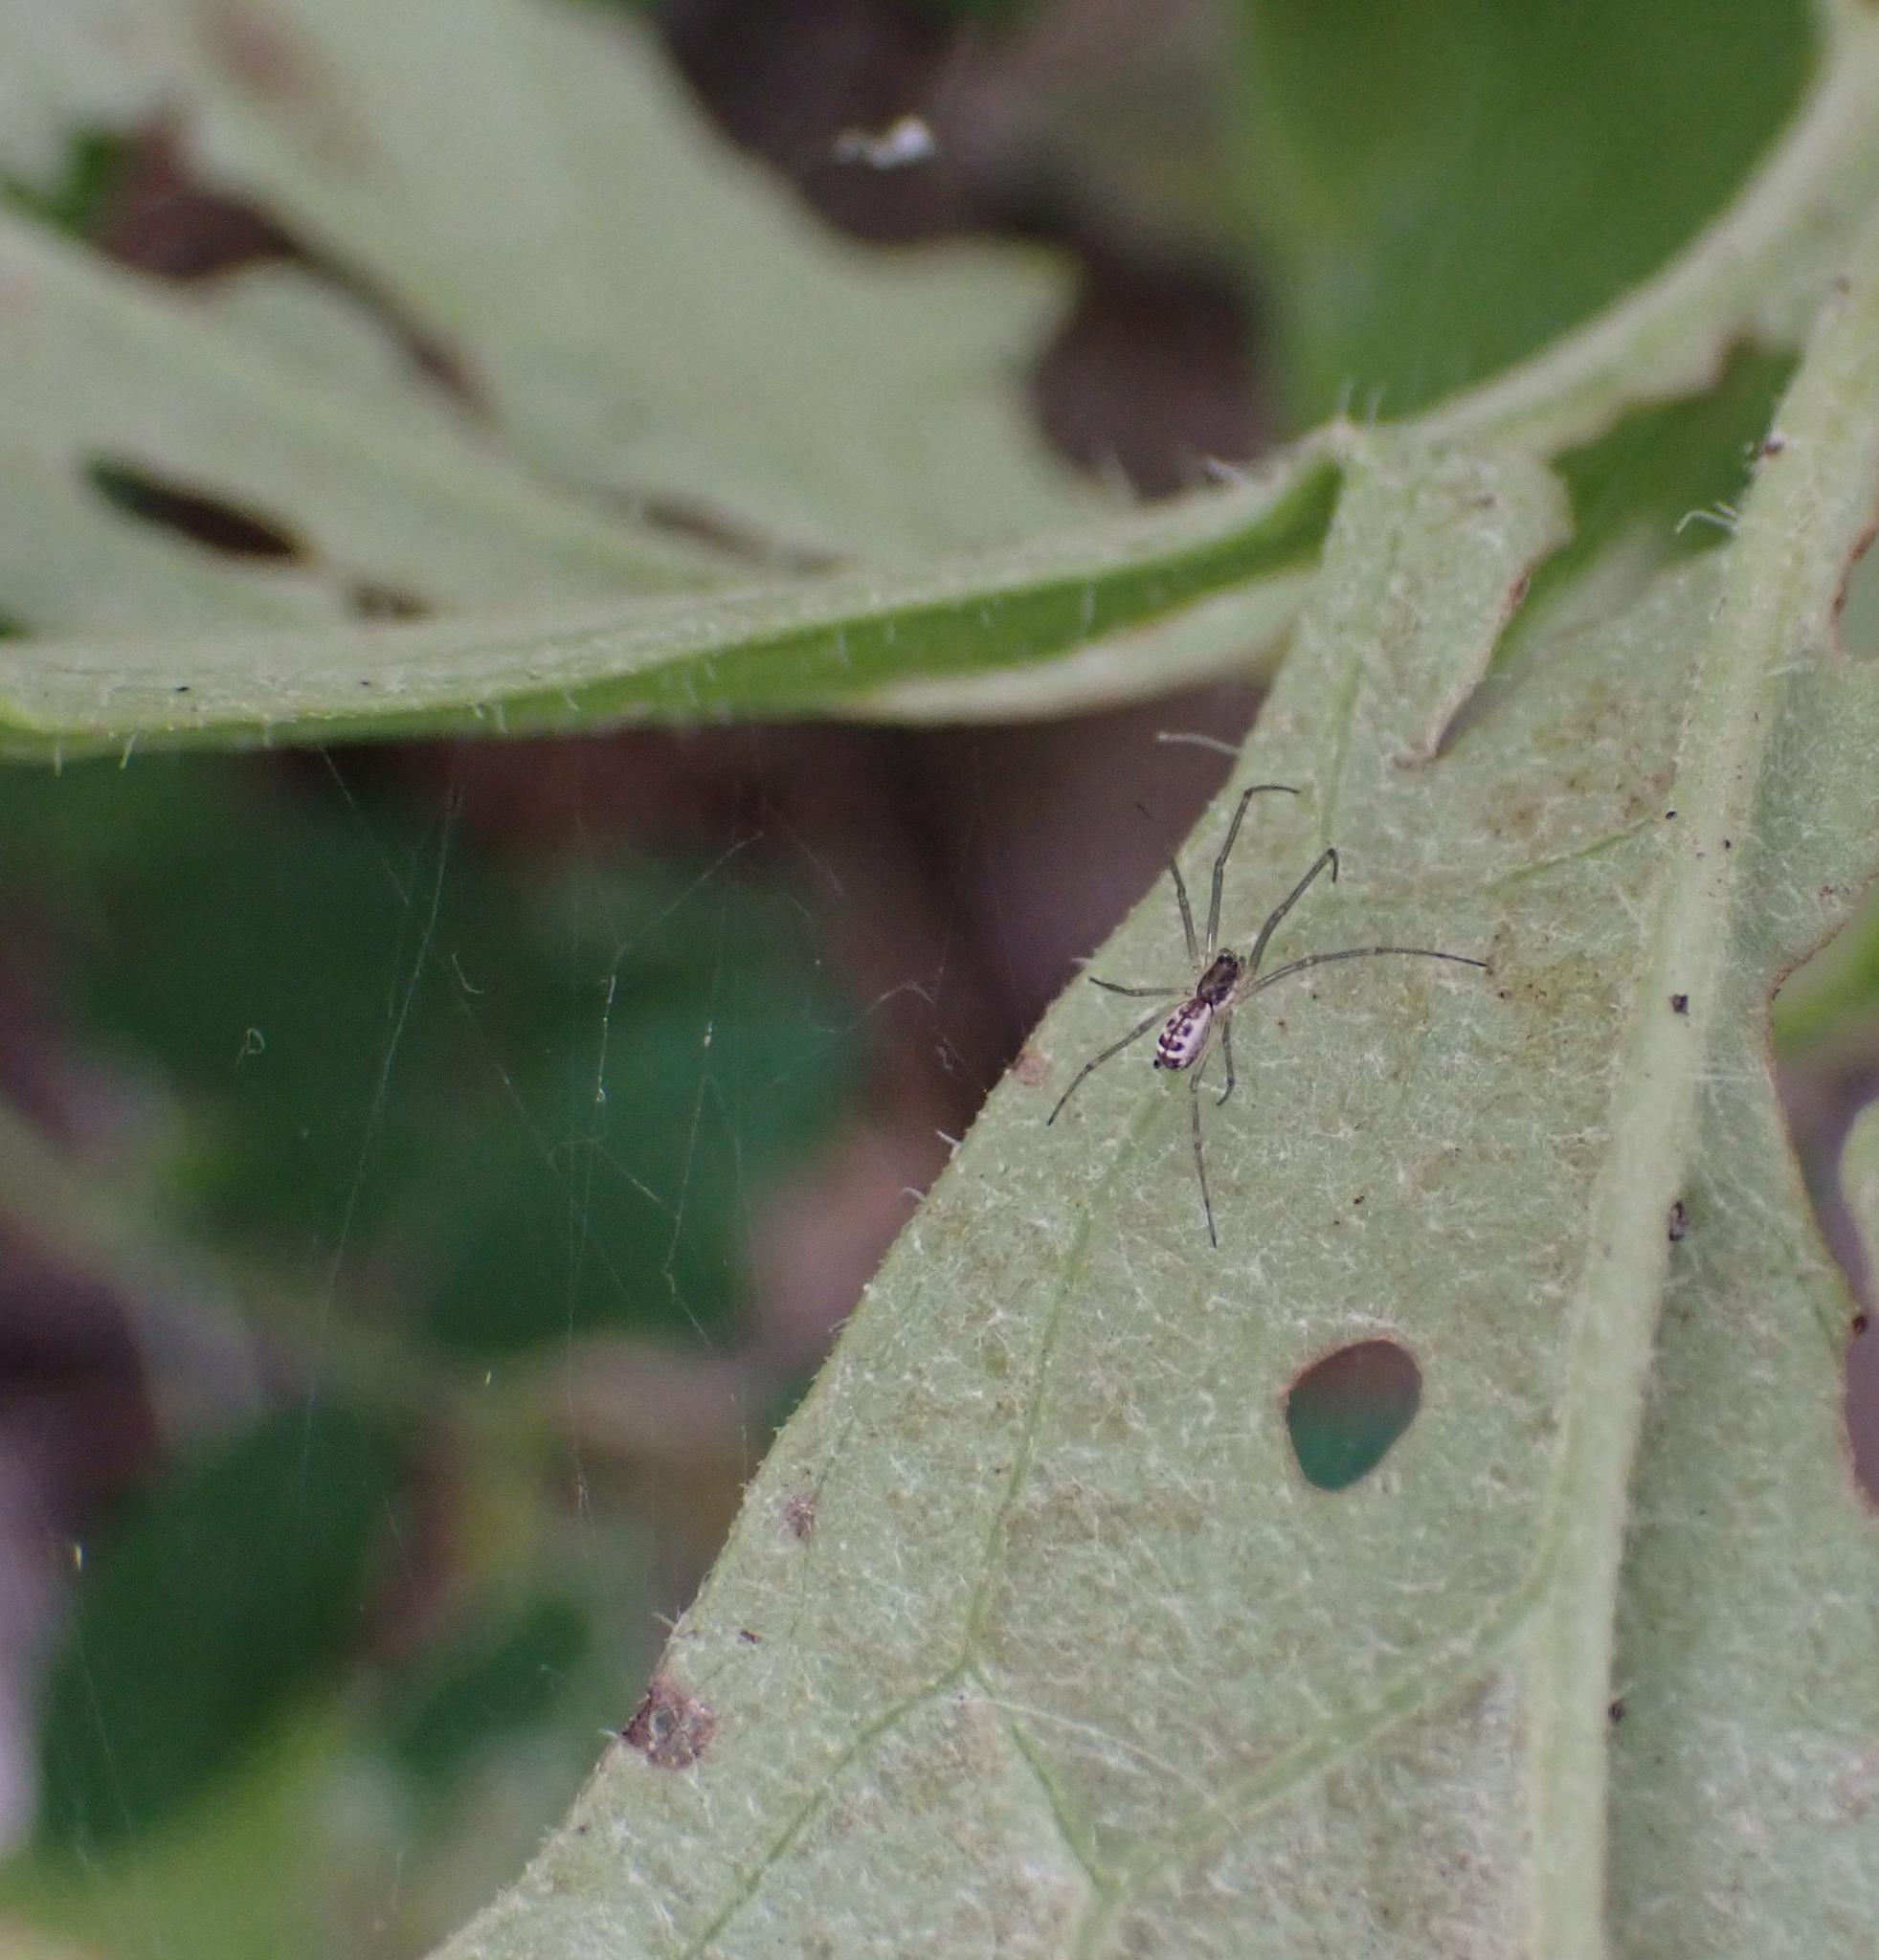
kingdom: Animalia
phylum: Arthropoda
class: Arachnida
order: Araneae
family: Linyphiidae
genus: Neriene
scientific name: Neriene radiata
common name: Filmy dome spider
